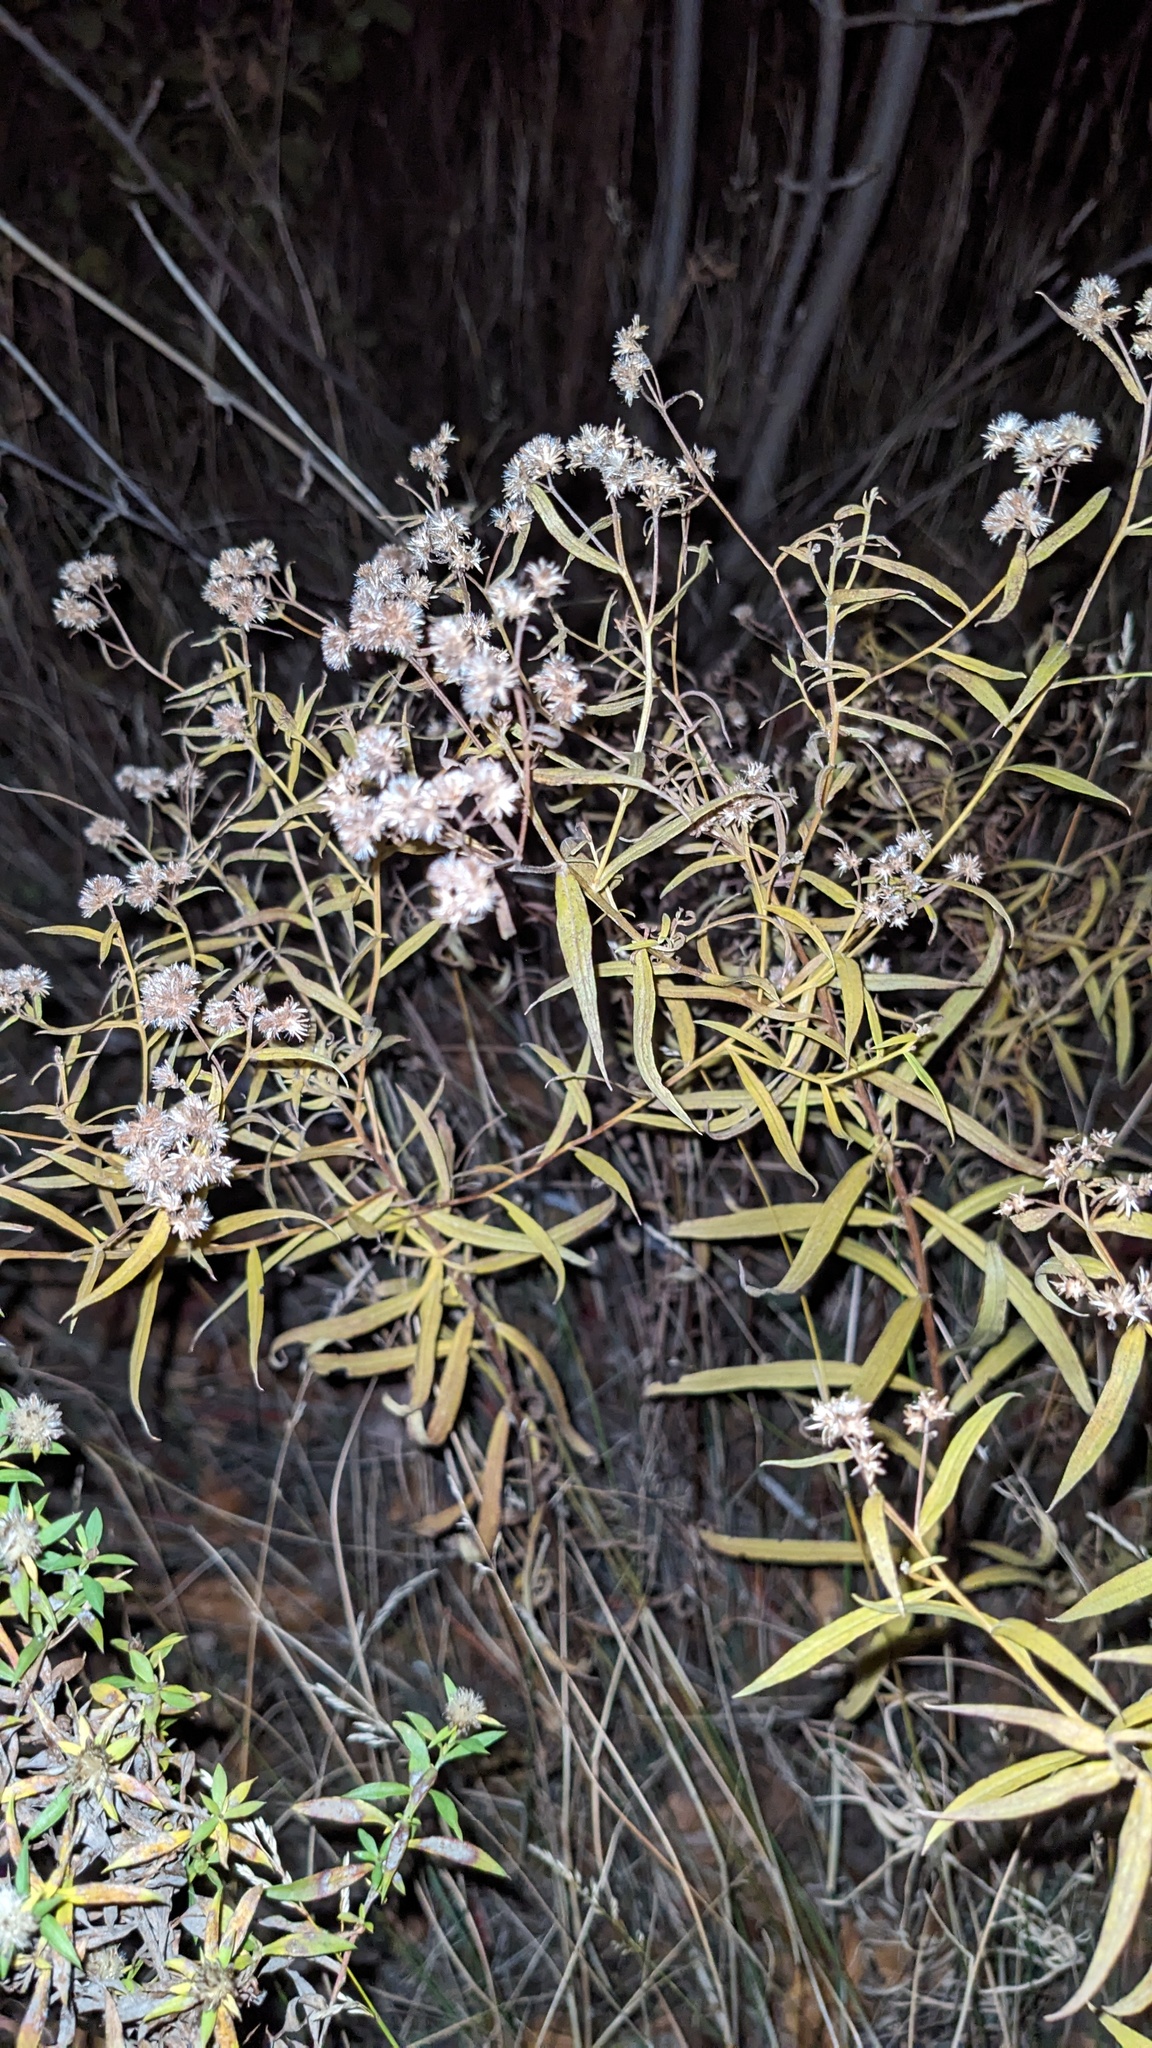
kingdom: Plantae
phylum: Tracheophyta
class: Magnoliopsida
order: Asterales
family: Asteraceae
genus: Euthamia
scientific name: Euthamia graminifolia
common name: Common goldentop
